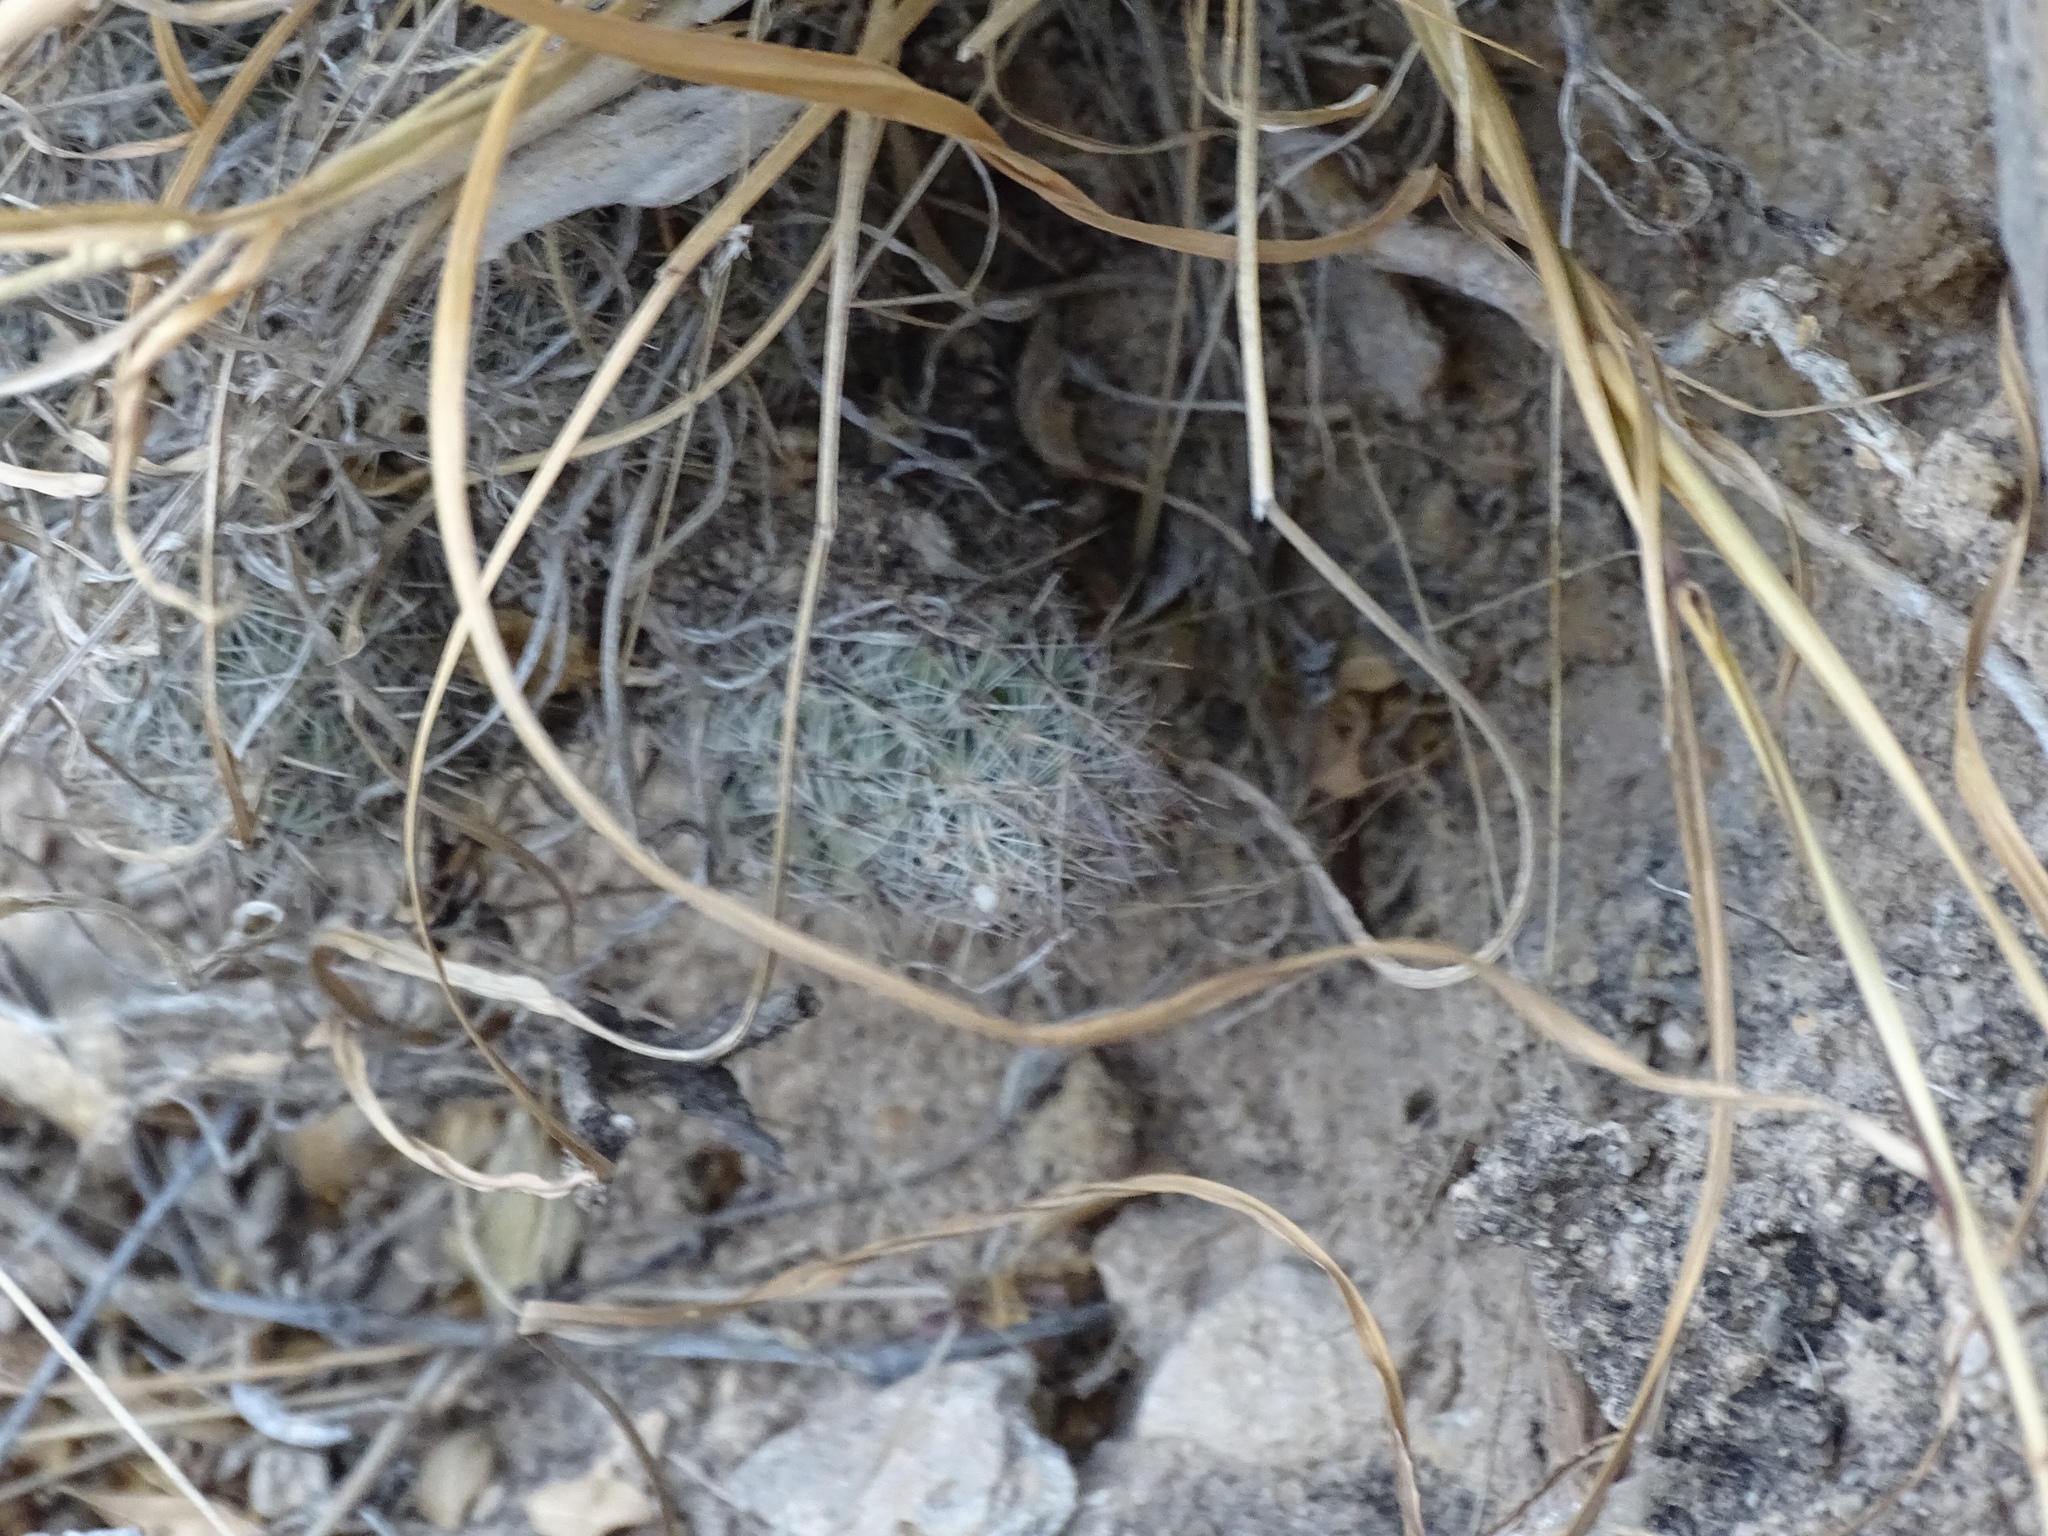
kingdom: Plantae
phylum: Tracheophyta
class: Magnoliopsida
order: Caryophyllales
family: Cactaceae
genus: Pelecyphora
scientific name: Pelecyphora tuberculosa
